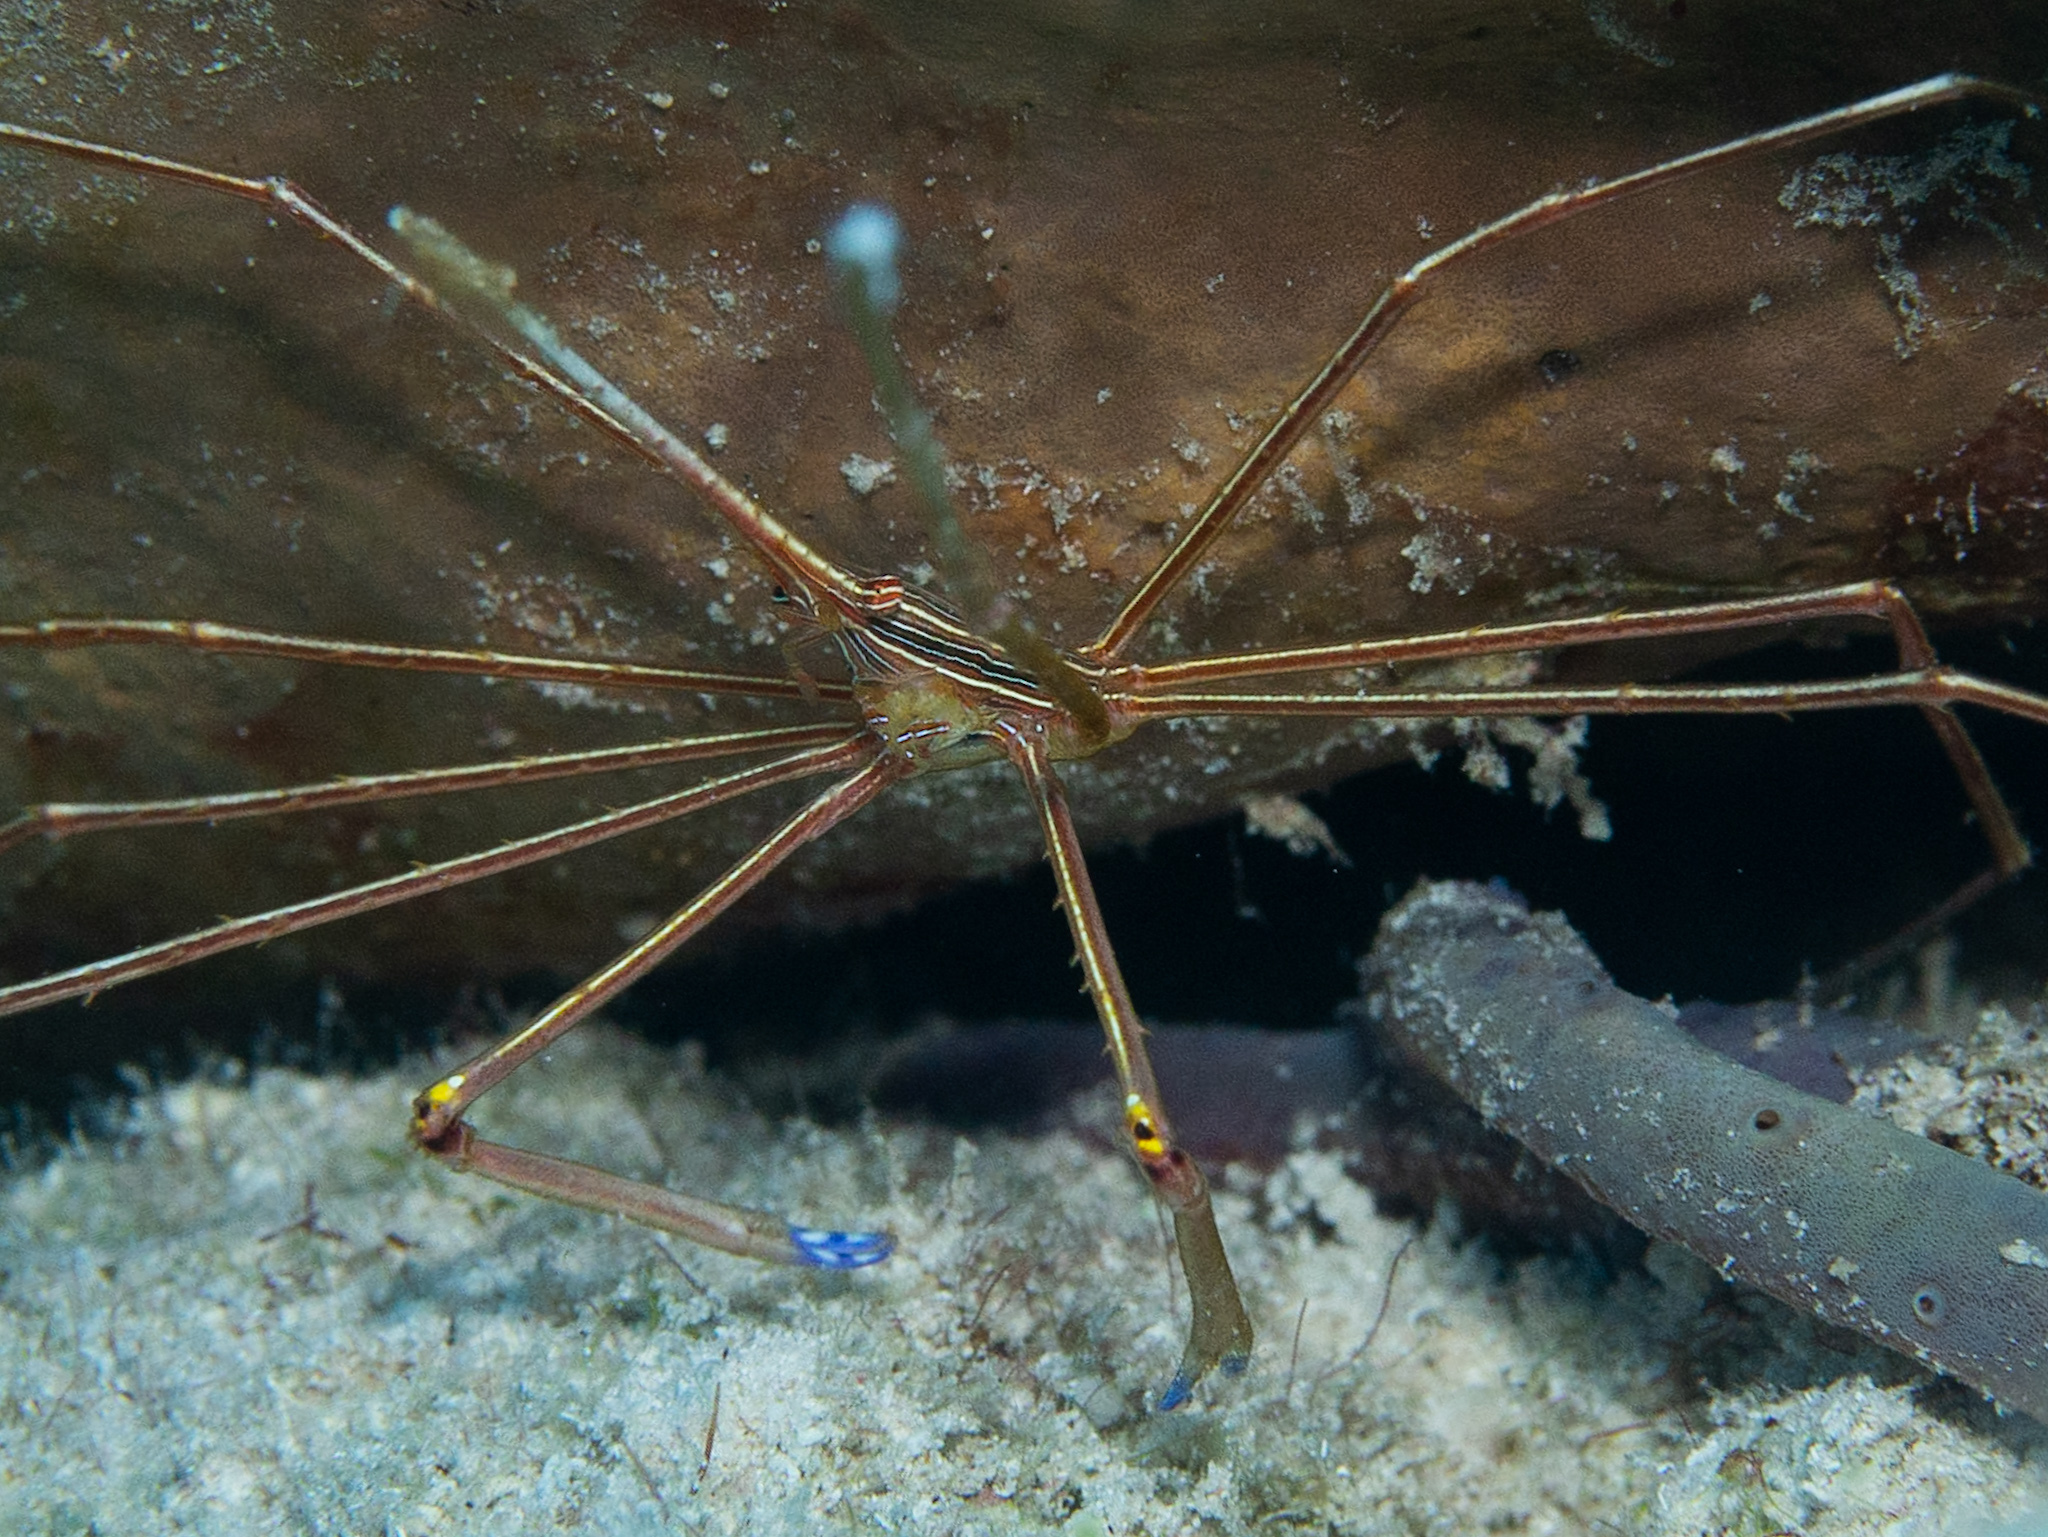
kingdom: Animalia
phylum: Arthropoda
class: Malacostraca
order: Decapoda
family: Inachoididae
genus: Stenorhynchus
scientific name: Stenorhynchus seticornis
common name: Arrow crab
